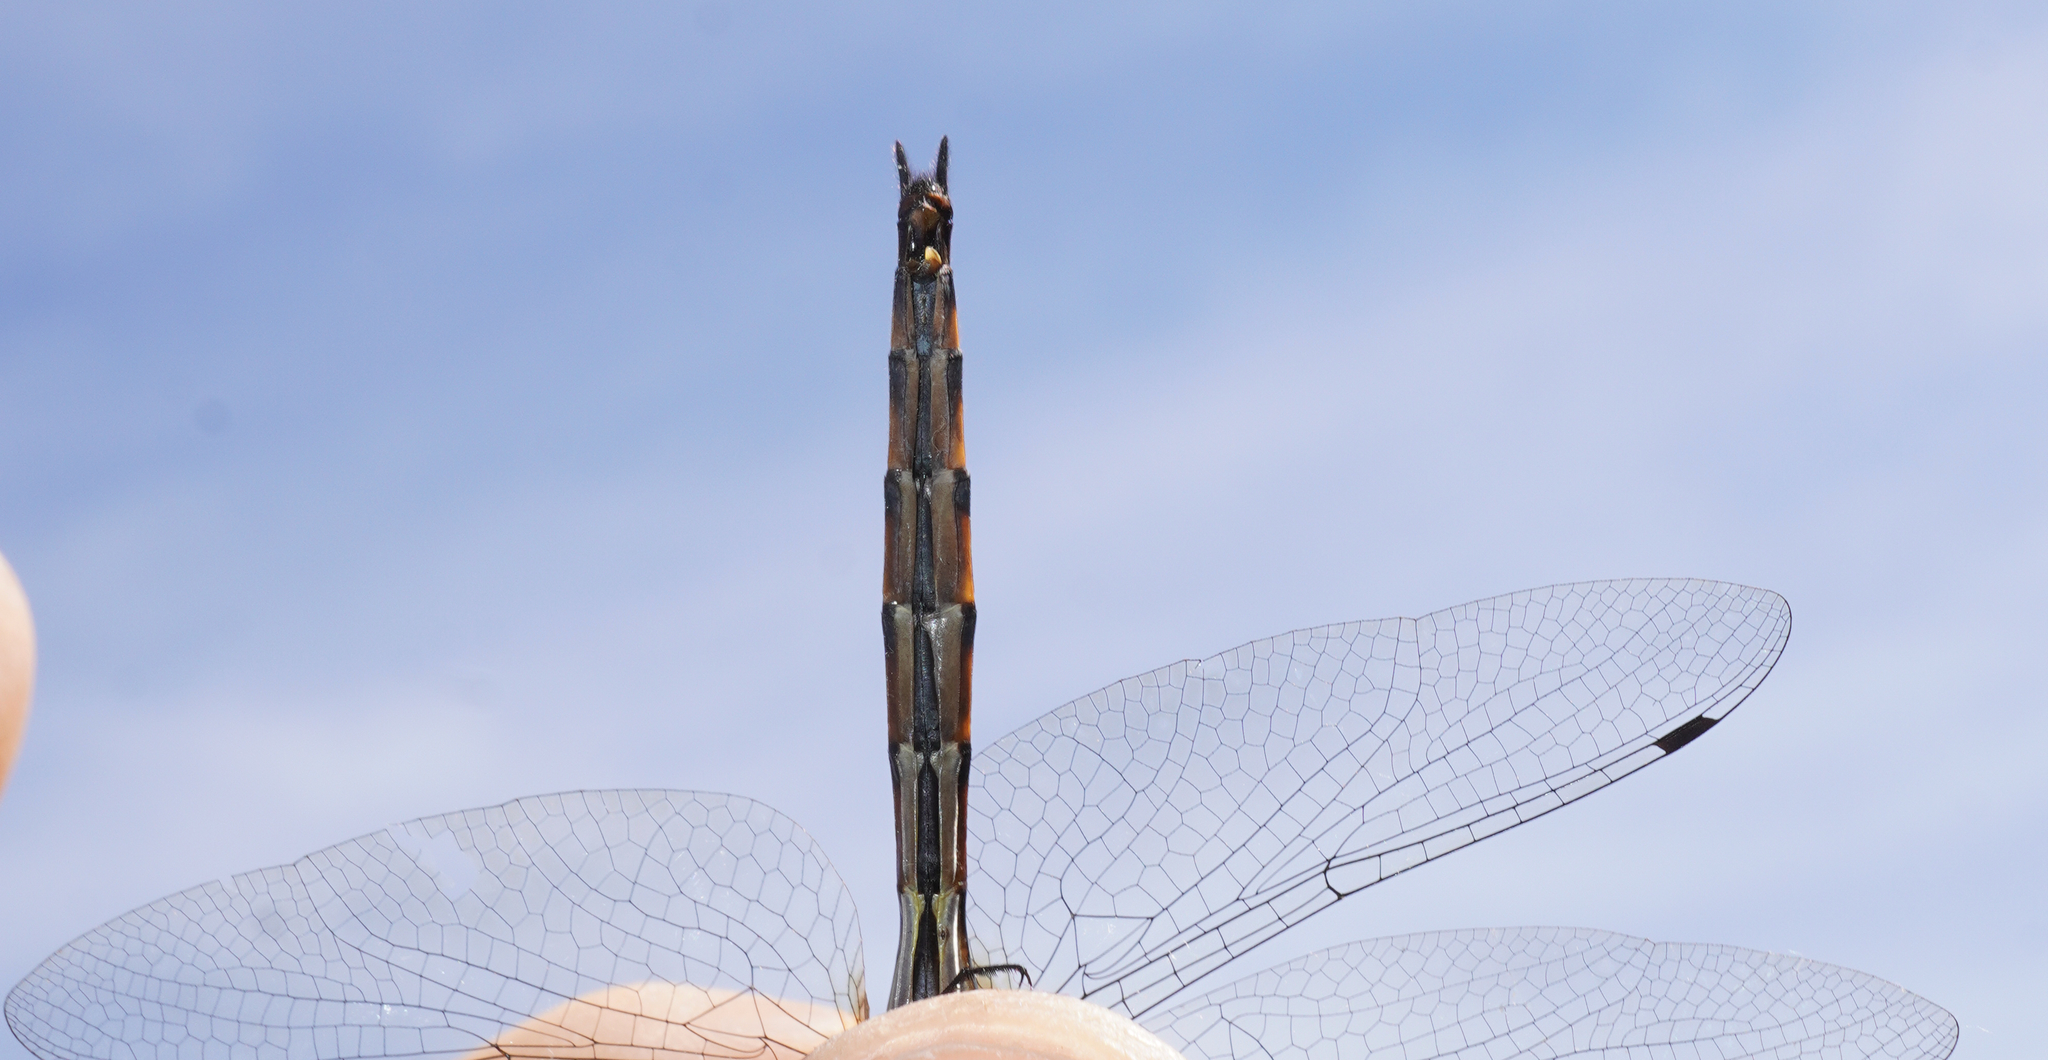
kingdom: Animalia
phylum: Arthropoda
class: Insecta
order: Odonata
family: Corduliidae
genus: Hemicordulia
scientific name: Hemicordulia armstrongi
